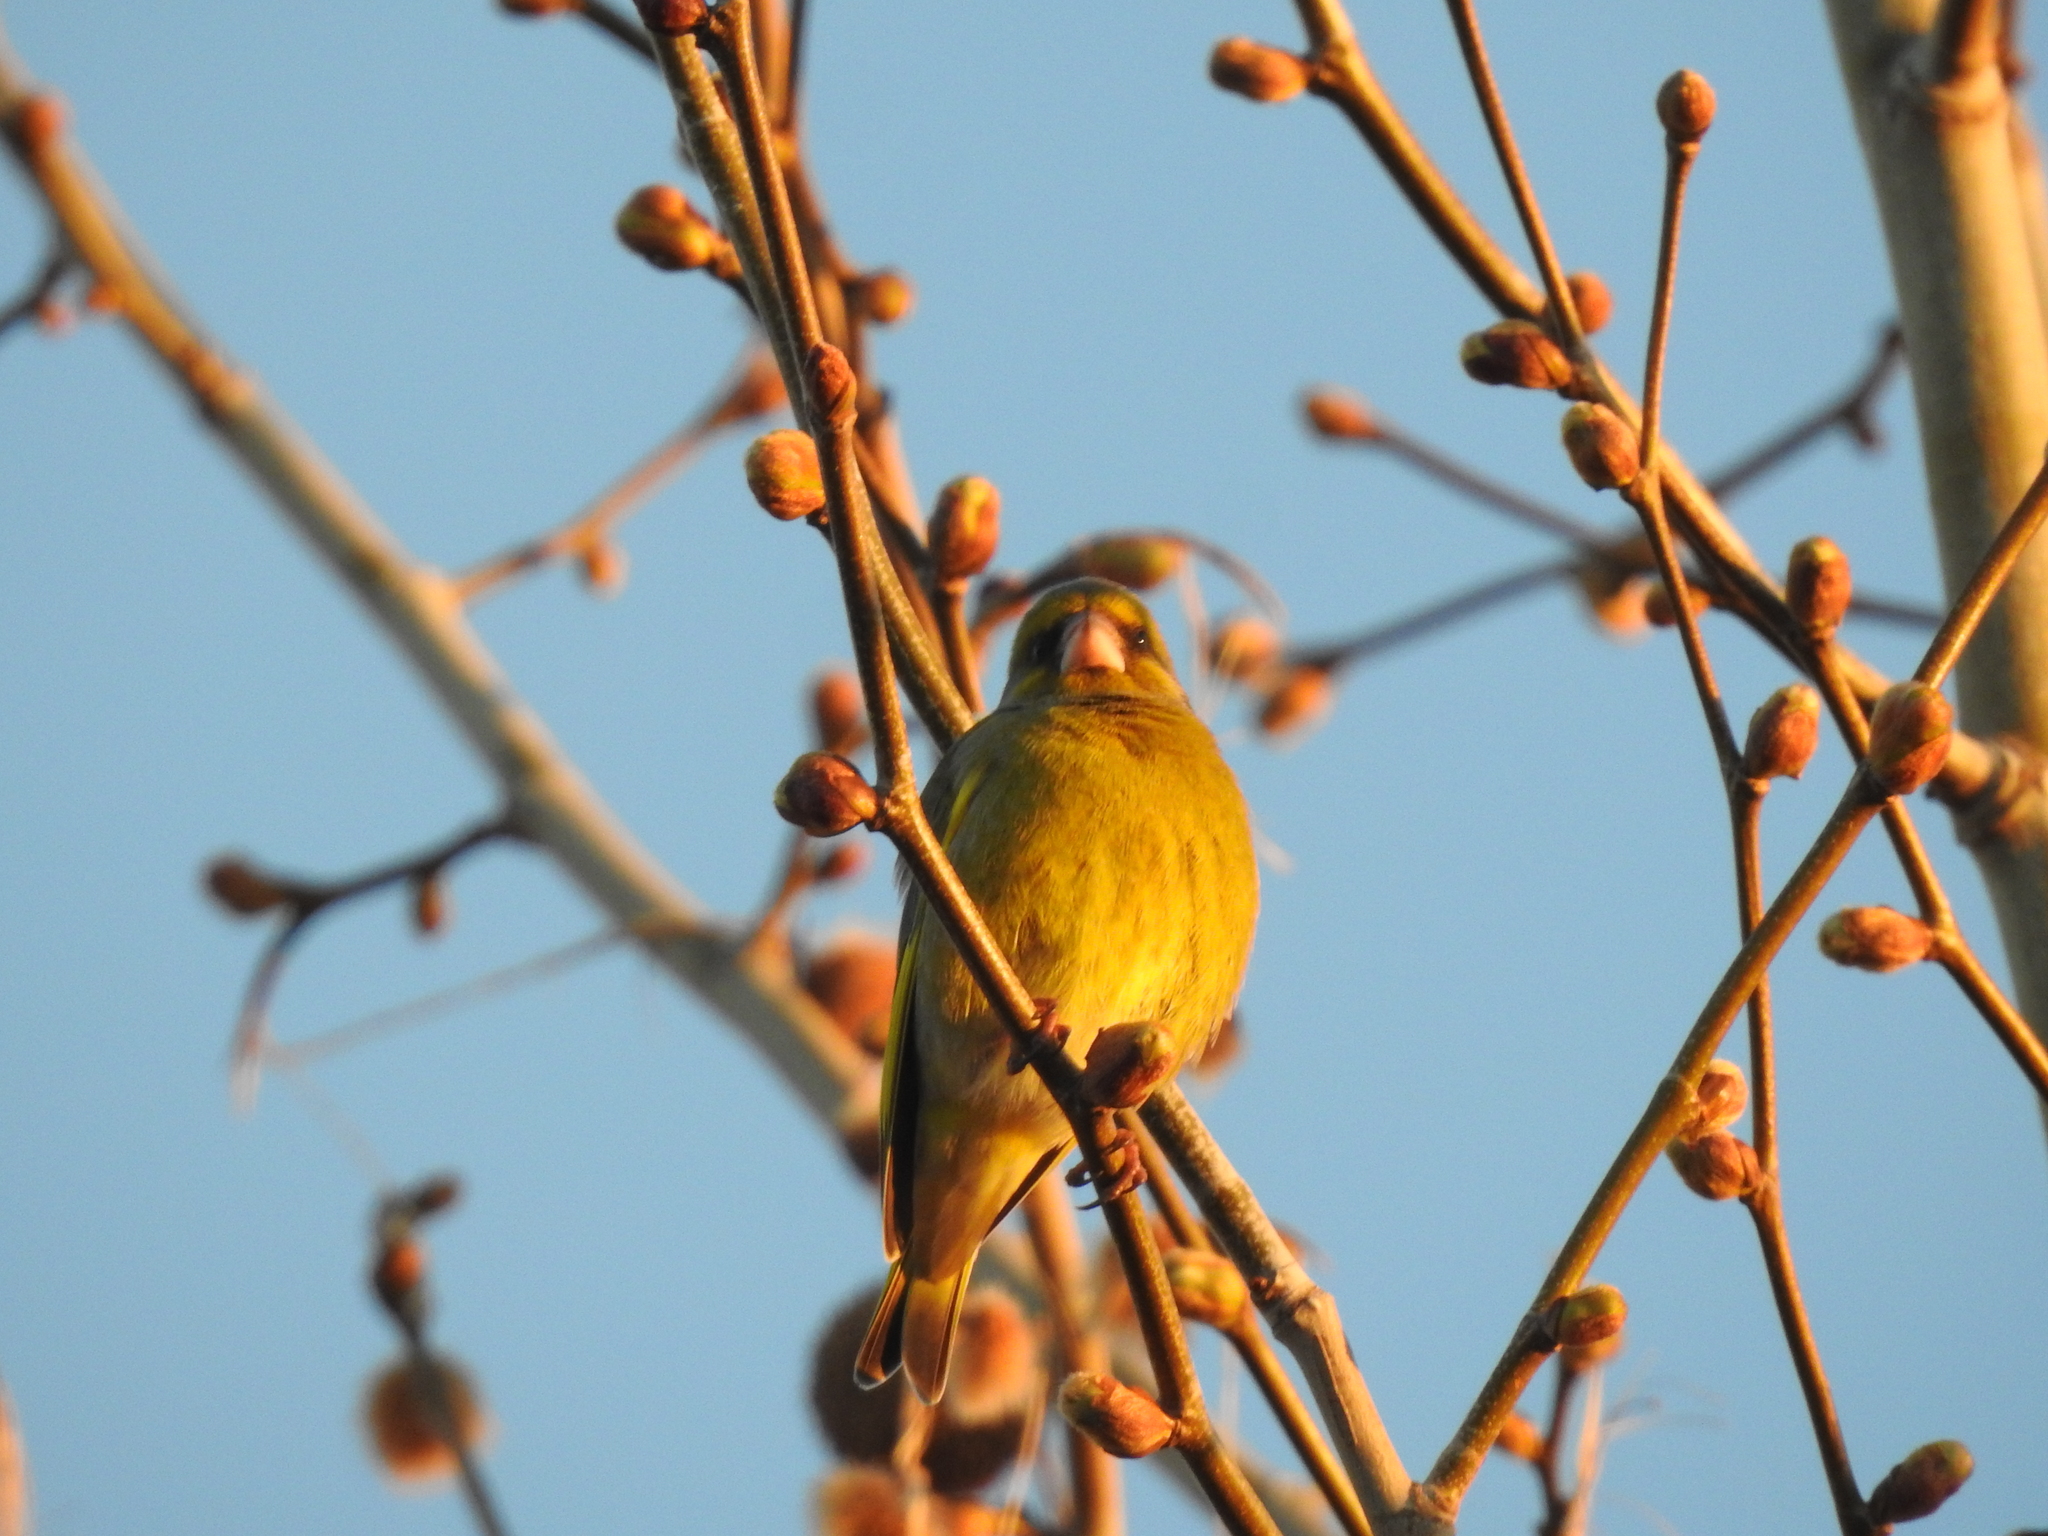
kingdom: Plantae
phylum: Tracheophyta
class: Liliopsida
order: Poales
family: Poaceae
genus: Chloris
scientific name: Chloris chloris
